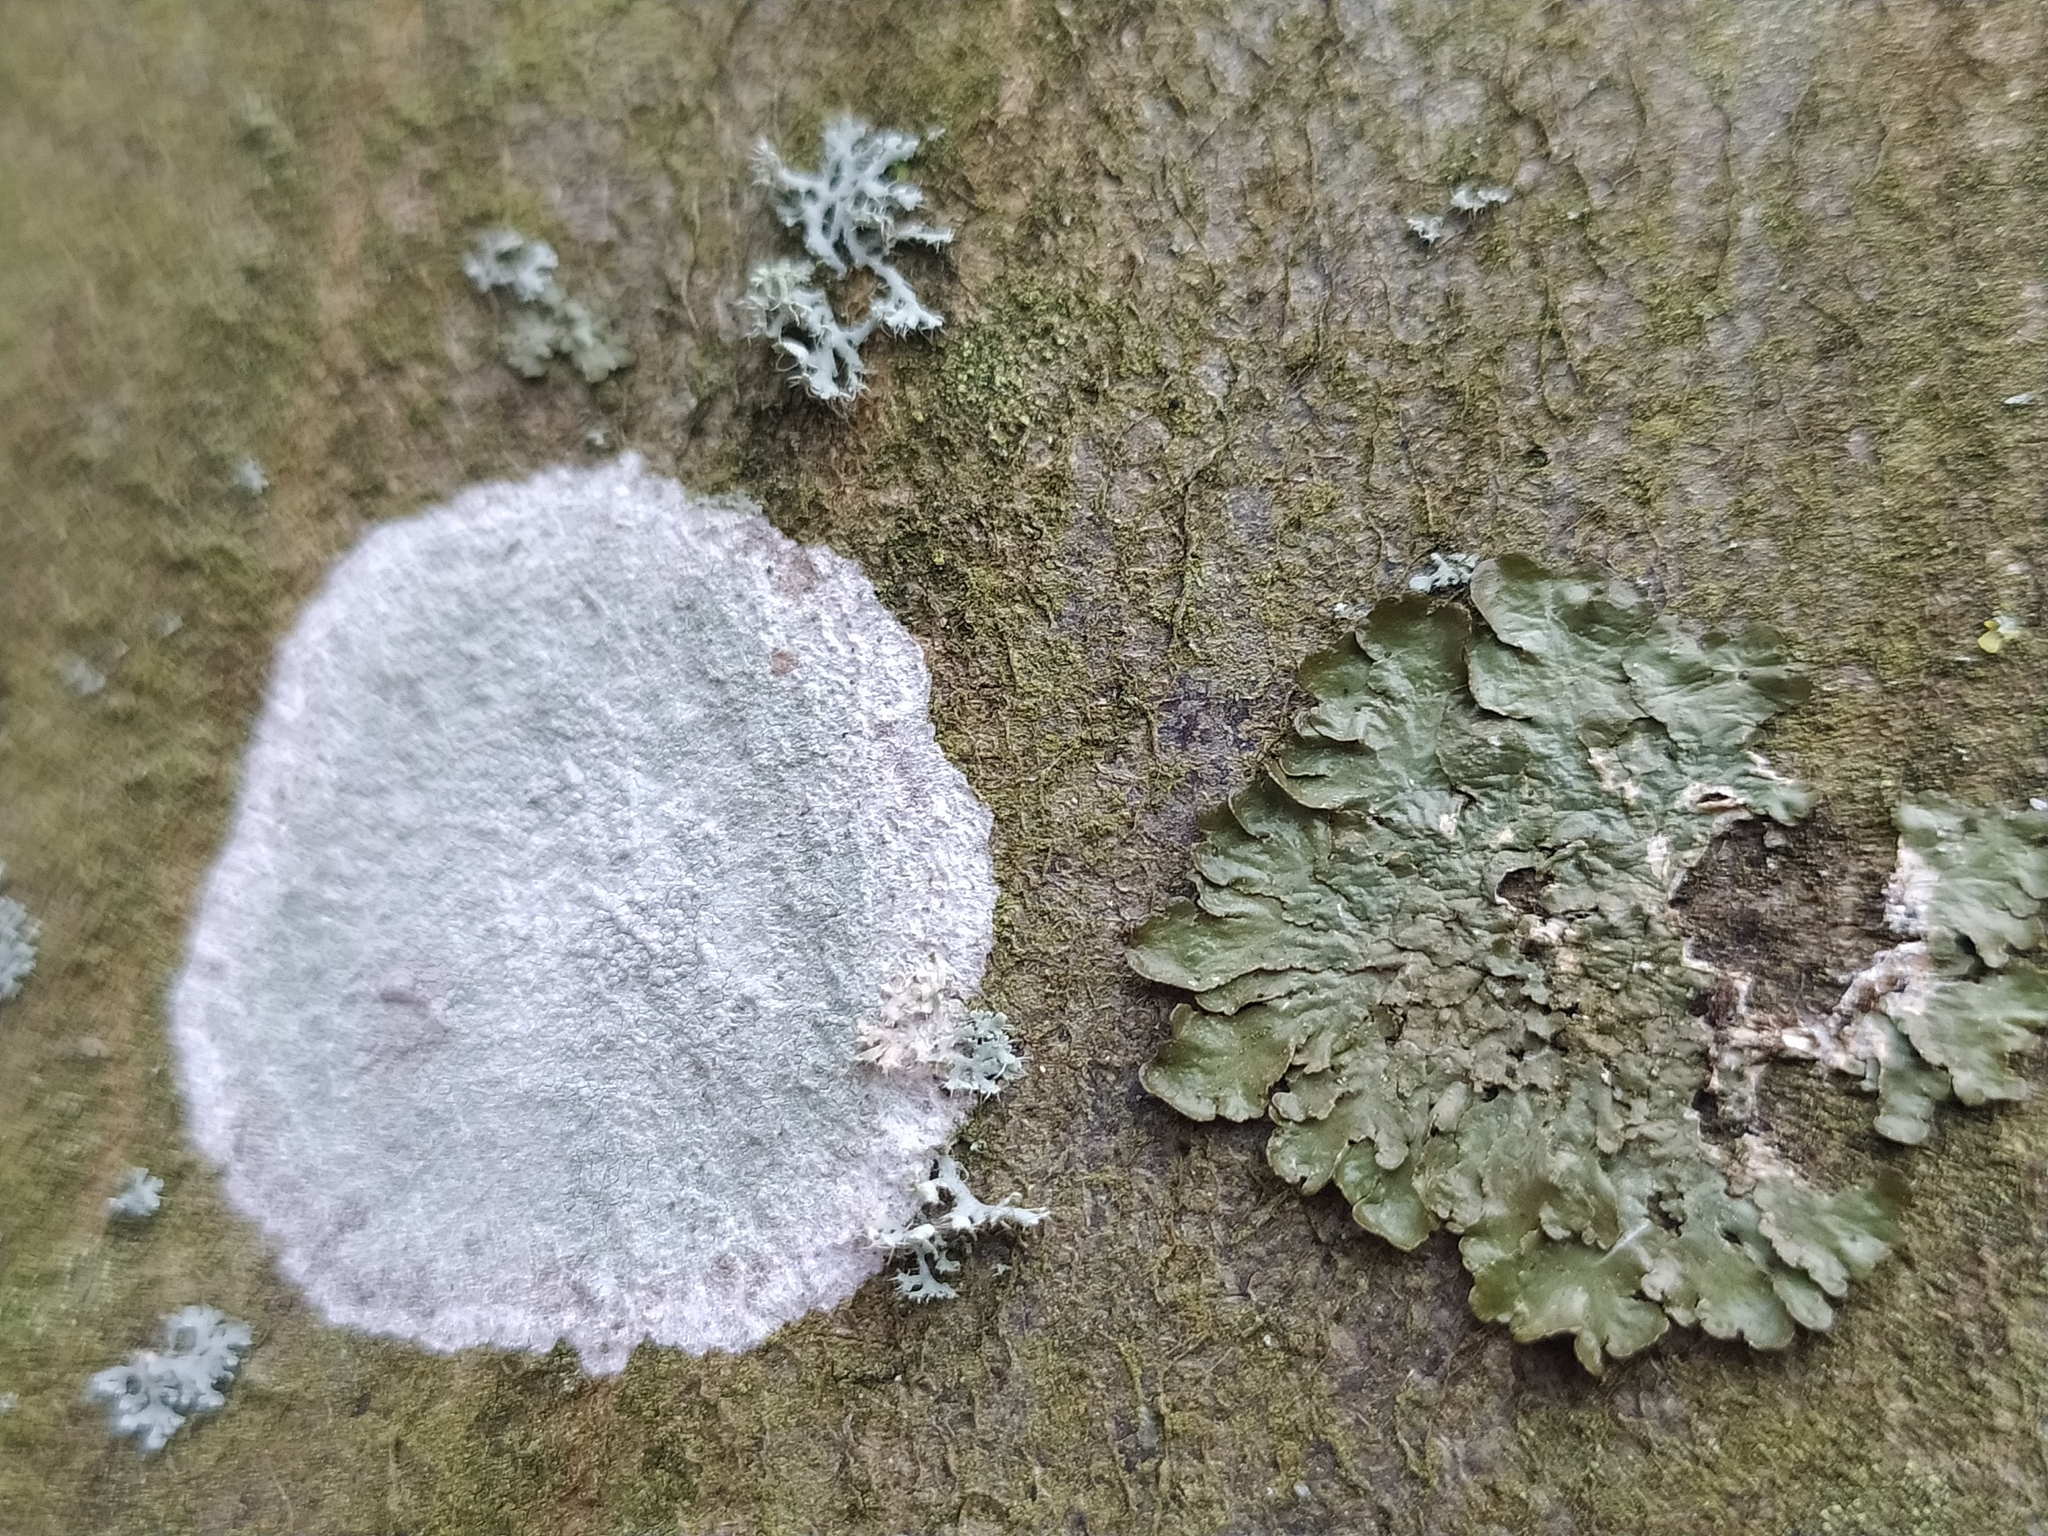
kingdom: Fungi
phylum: Ascomycota
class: Lecanoromycetes
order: Ostropales
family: Phlyctidaceae
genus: Phlyctis
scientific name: Phlyctis argena
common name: Whitewash lichen
